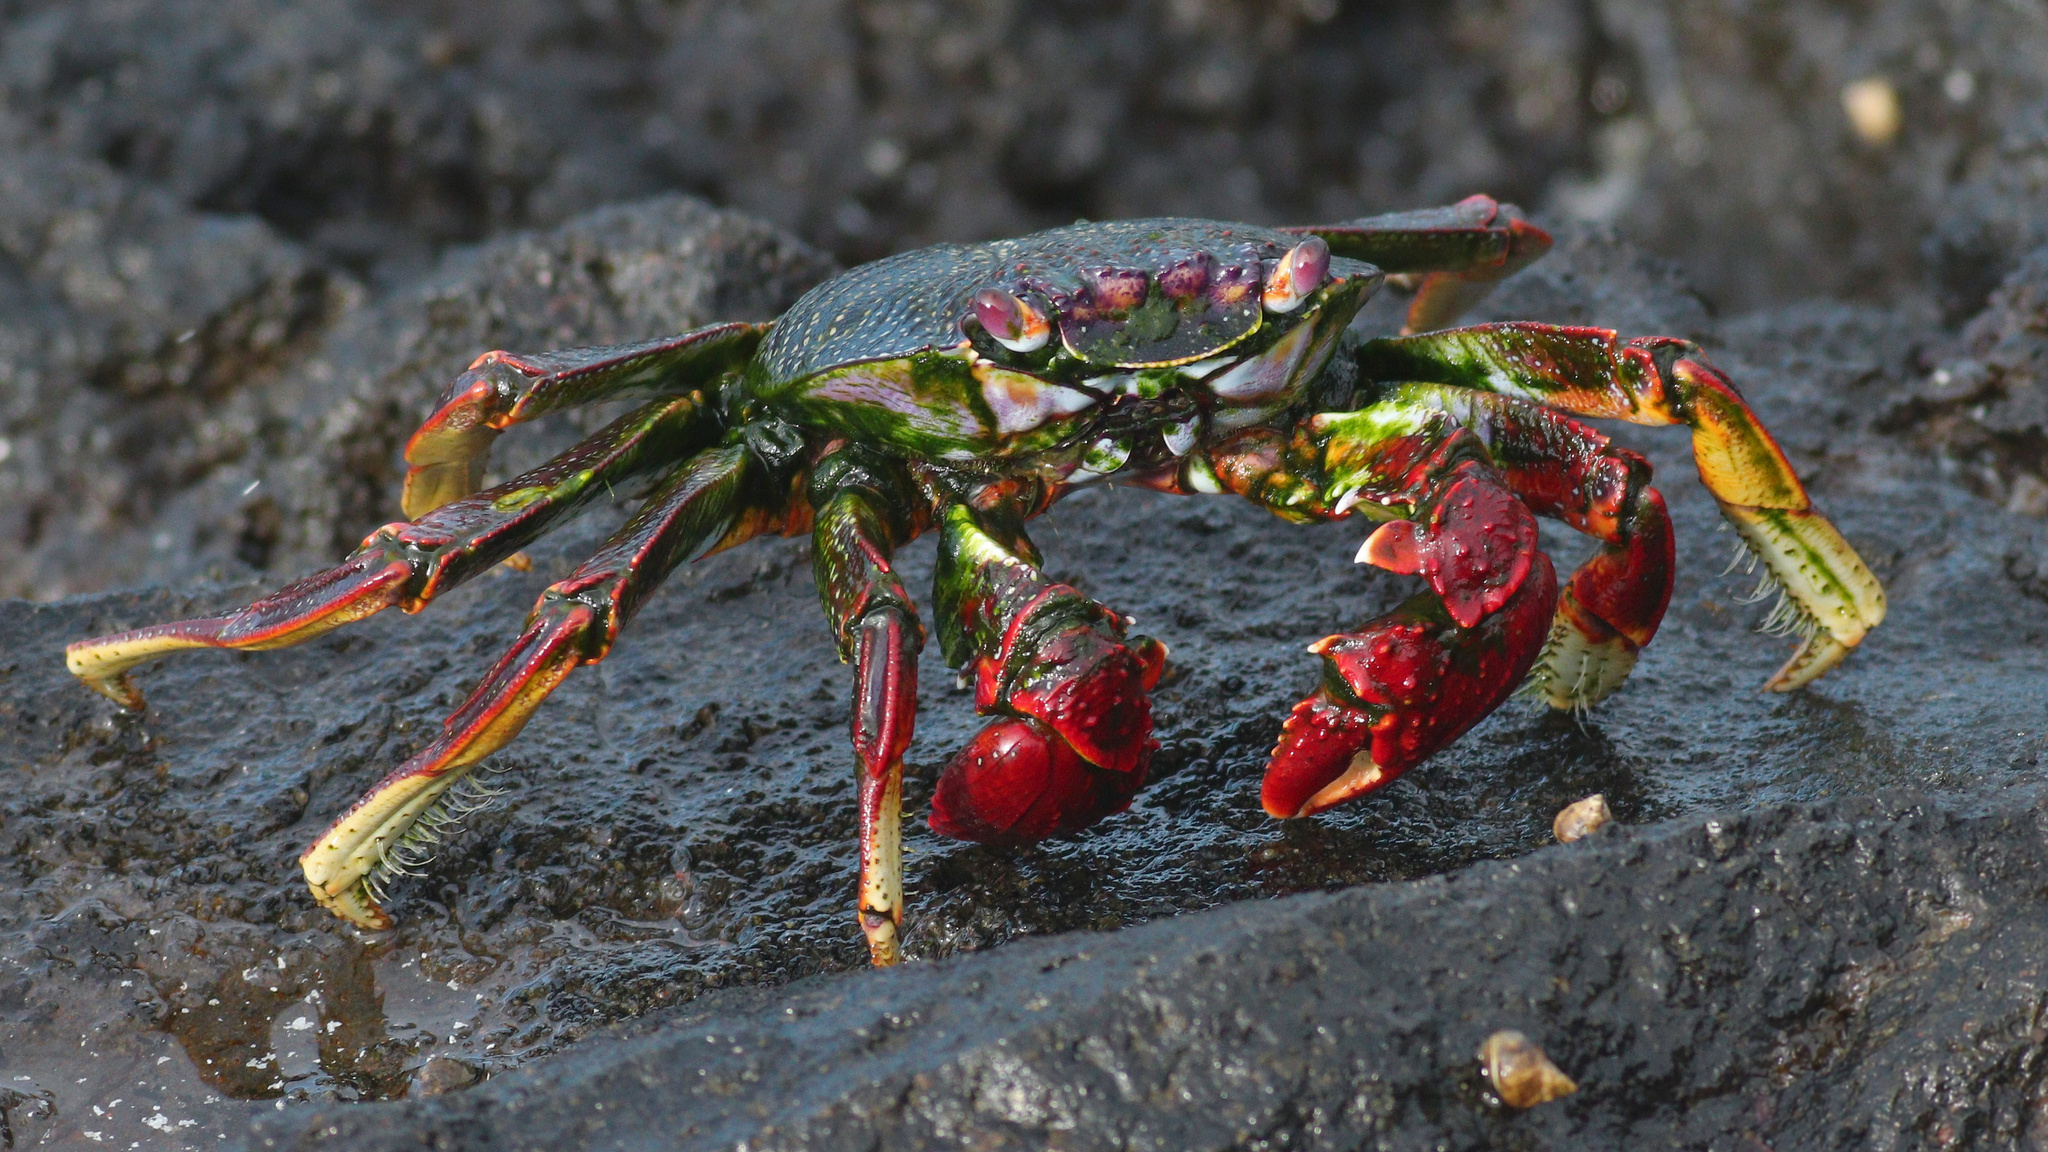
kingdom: Animalia
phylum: Arthropoda
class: Malacostraca
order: Decapoda
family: Grapsidae
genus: Grapsus
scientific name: Grapsus adscensionis
